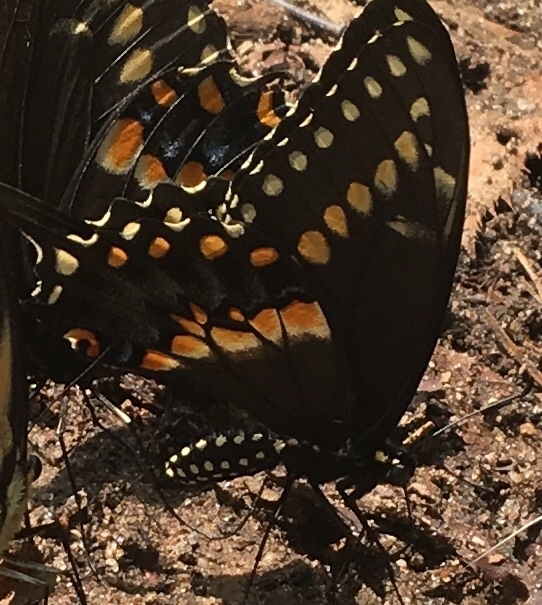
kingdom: Animalia
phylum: Arthropoda
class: Insecta
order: Lepidoptera
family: Papilionidae
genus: Papilio
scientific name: Papilio polyxenes
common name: Black swallowtail
